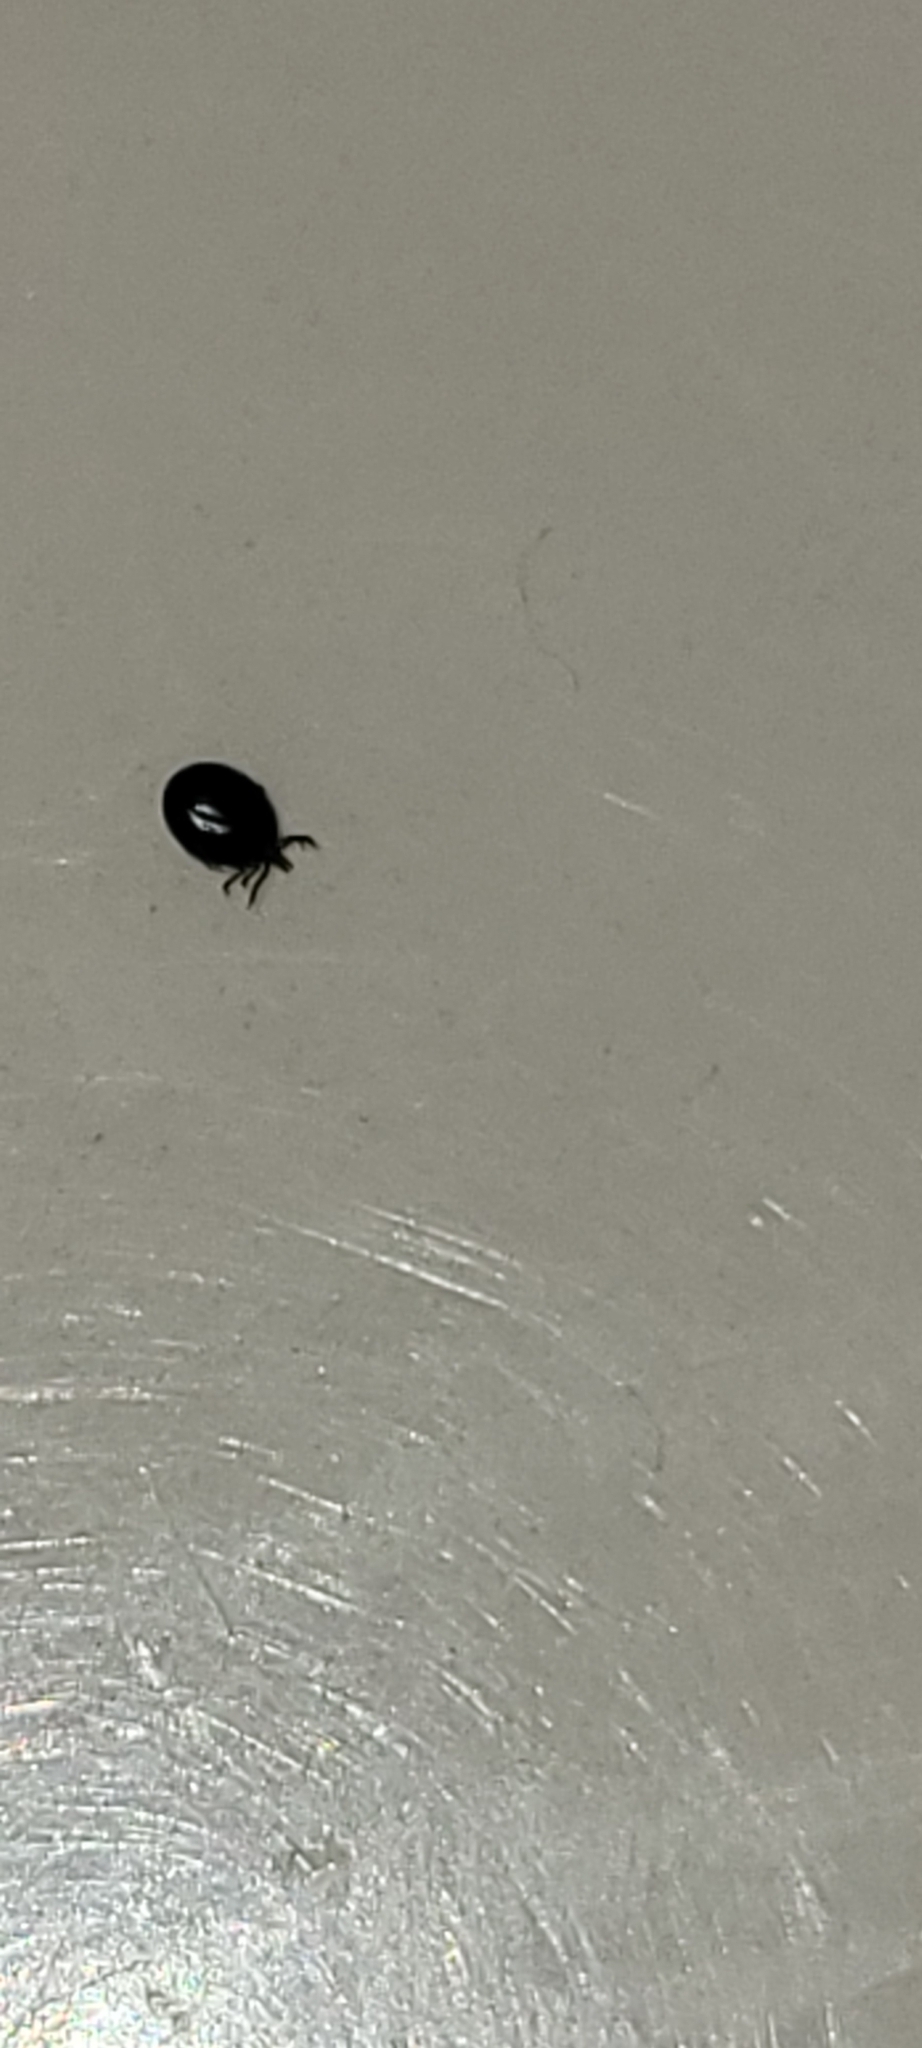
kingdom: Animalia
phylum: Arthropoda
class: Arachnida
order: Ixodida
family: Ixodidae
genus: Ixodes
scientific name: Ixodes scapularis
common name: Black legged tick
